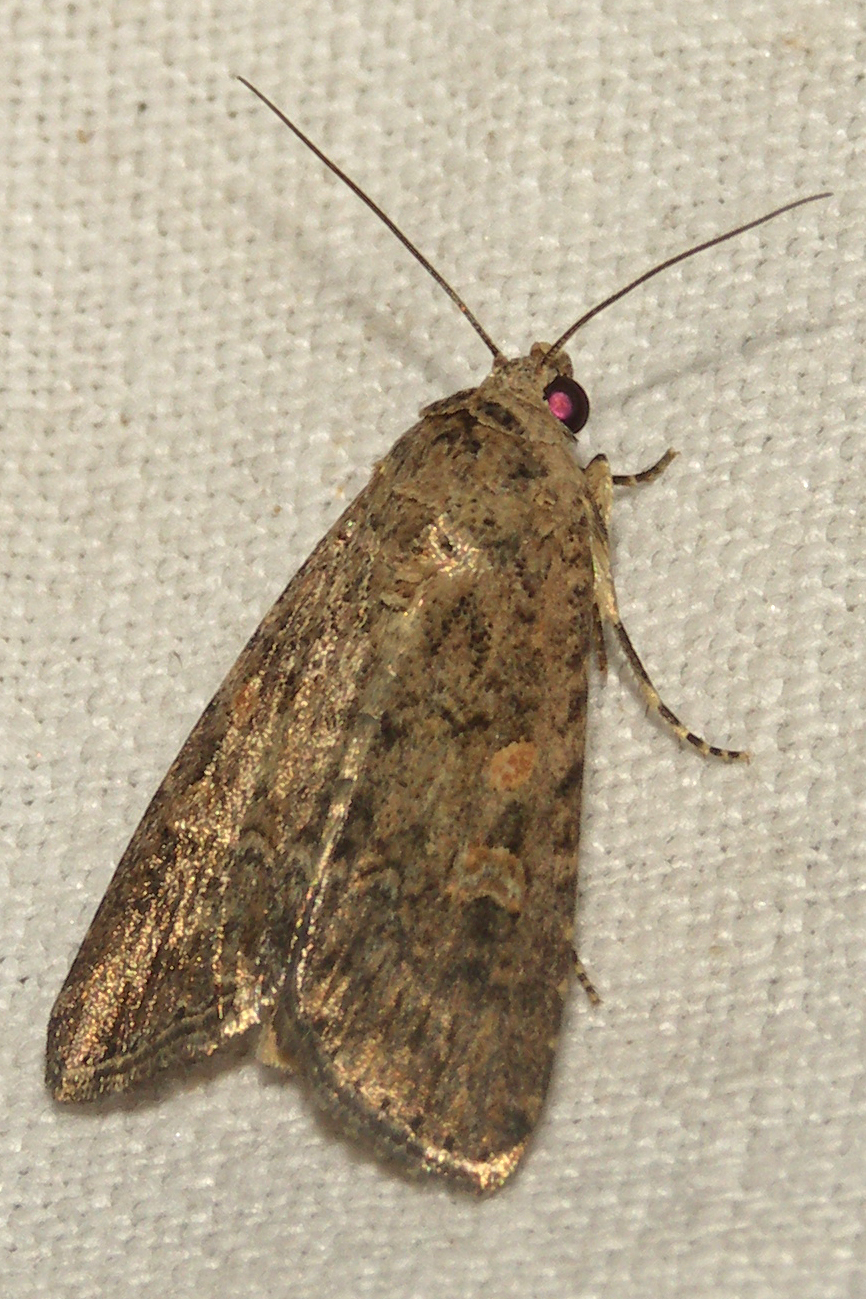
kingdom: Animalia
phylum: Arthropoda
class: Insecta
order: Lepidoptera
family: Noctuidae
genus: Spodoptera
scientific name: Spodoptera exigua
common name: Beet armyworm
